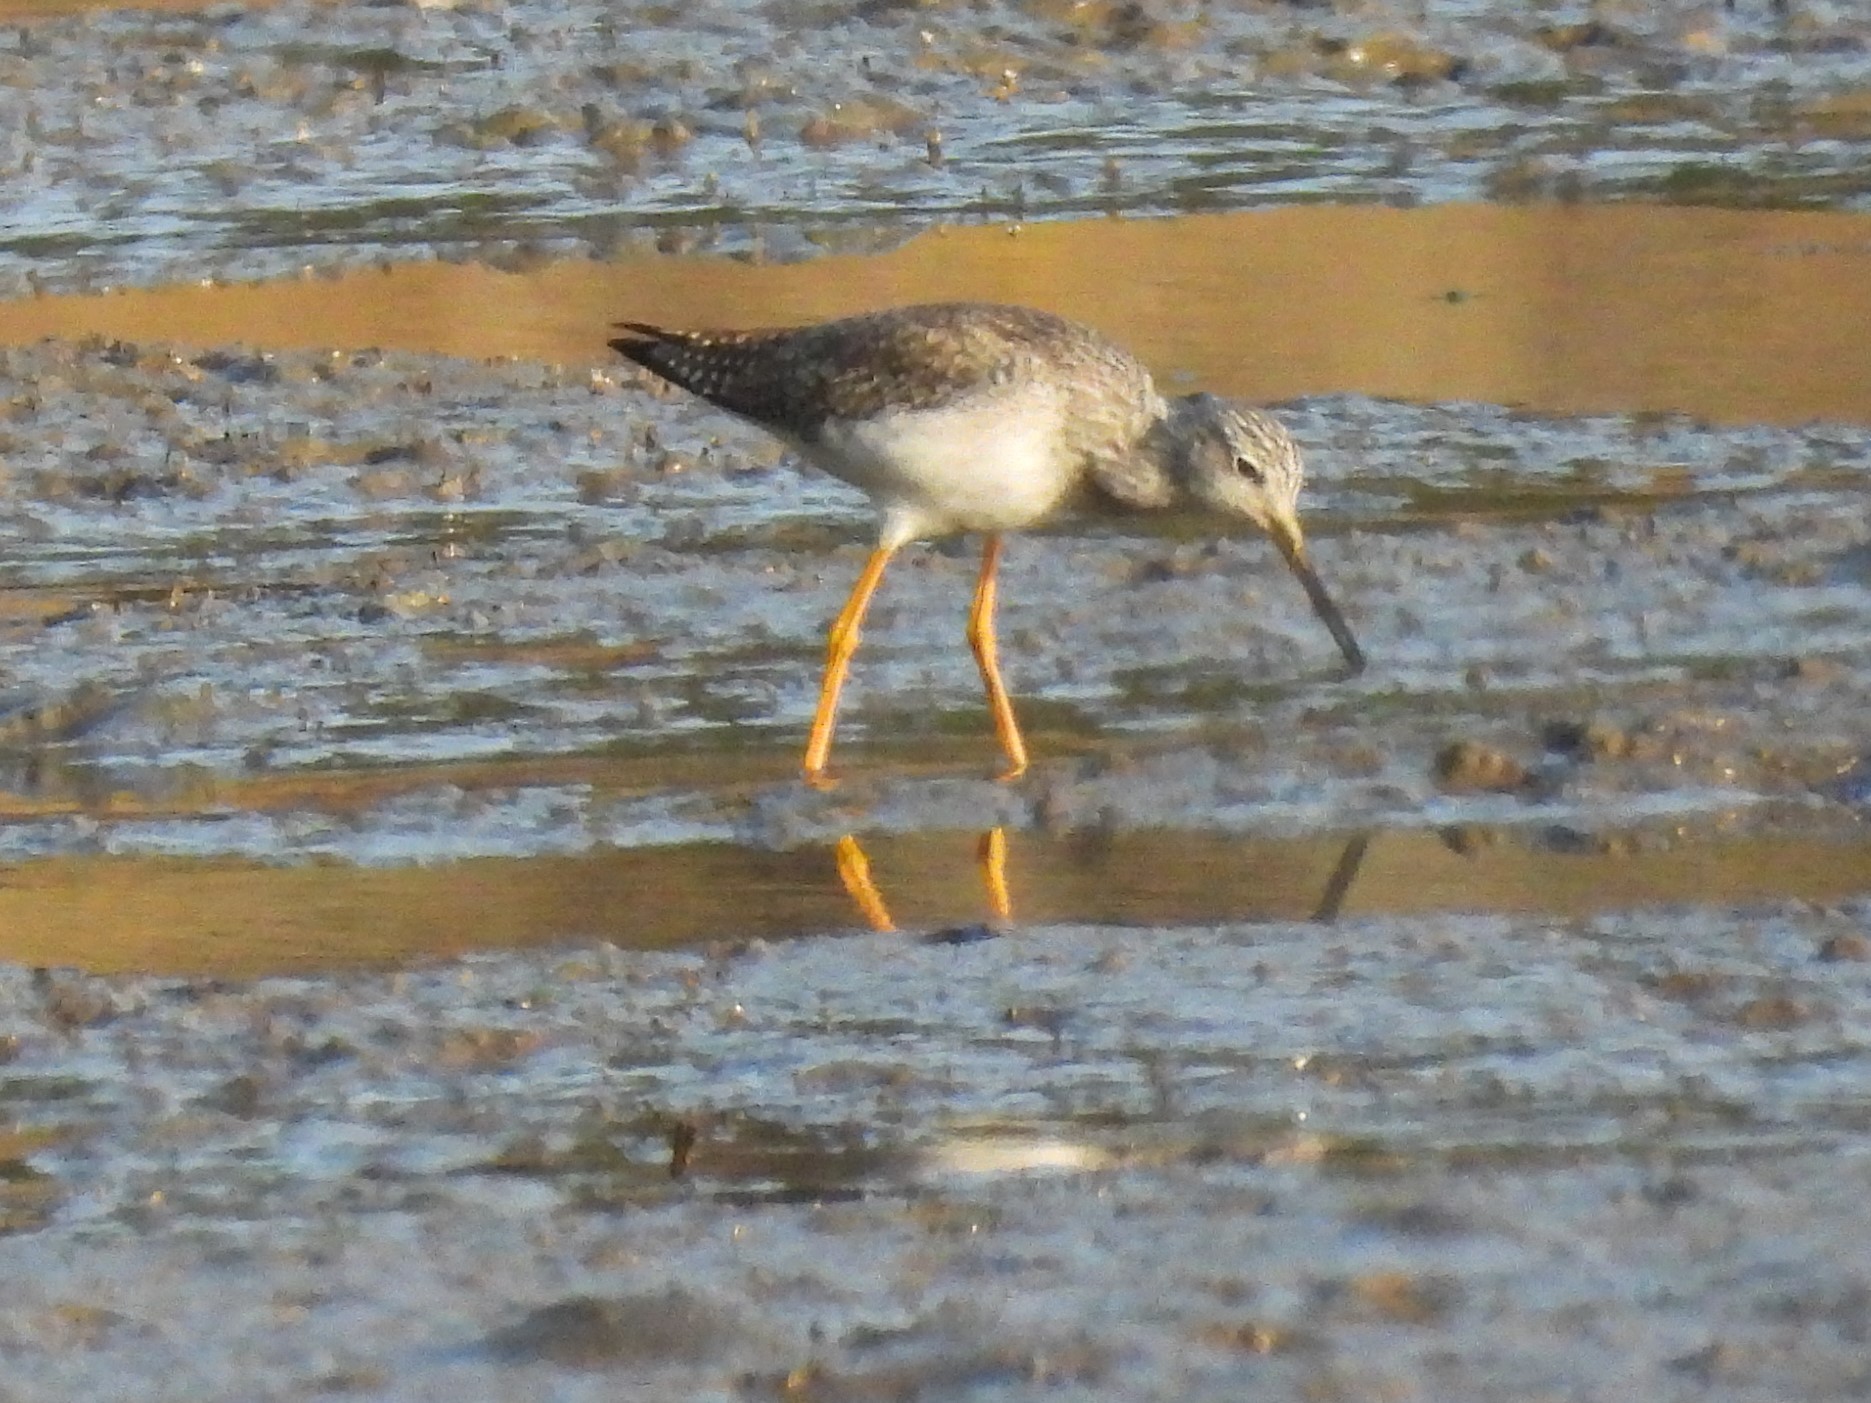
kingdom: Animalia
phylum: Chordata
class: Aves
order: Charadriiformes
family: Scolopacidae
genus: Tringa
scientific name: Tringa melanoleuca
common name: Greater yellowlegs
